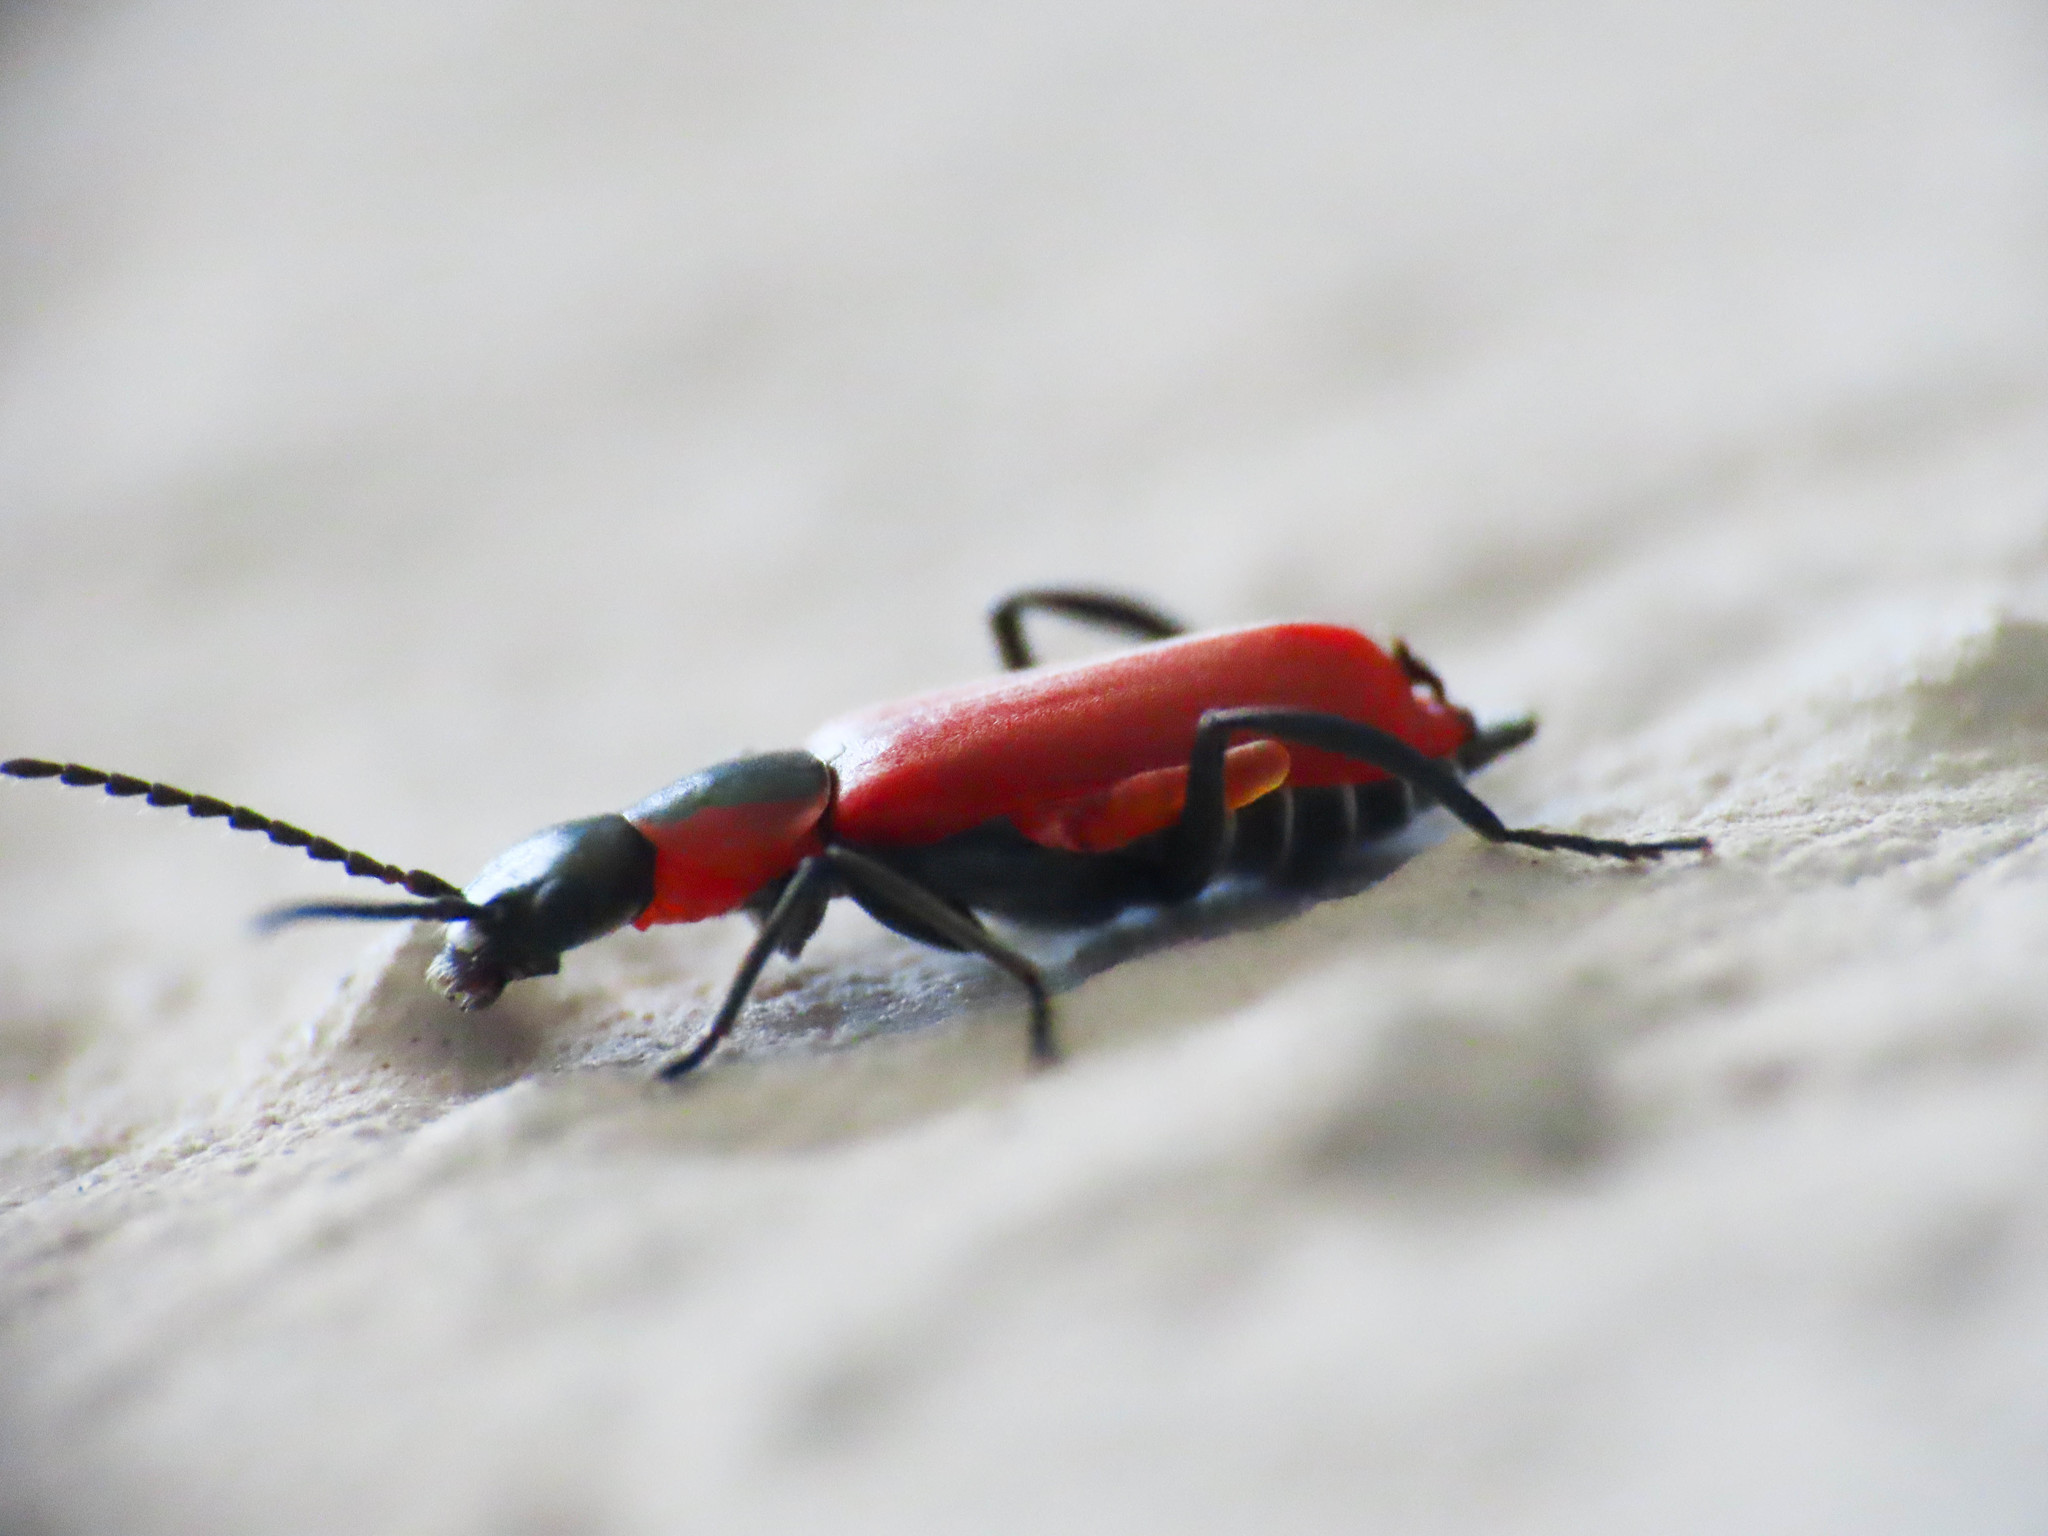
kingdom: Animalia
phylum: Arthropoda
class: Insecta
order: Coleoptera
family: Melyridae
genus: Anthocomus
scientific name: Anthocomus rufus
